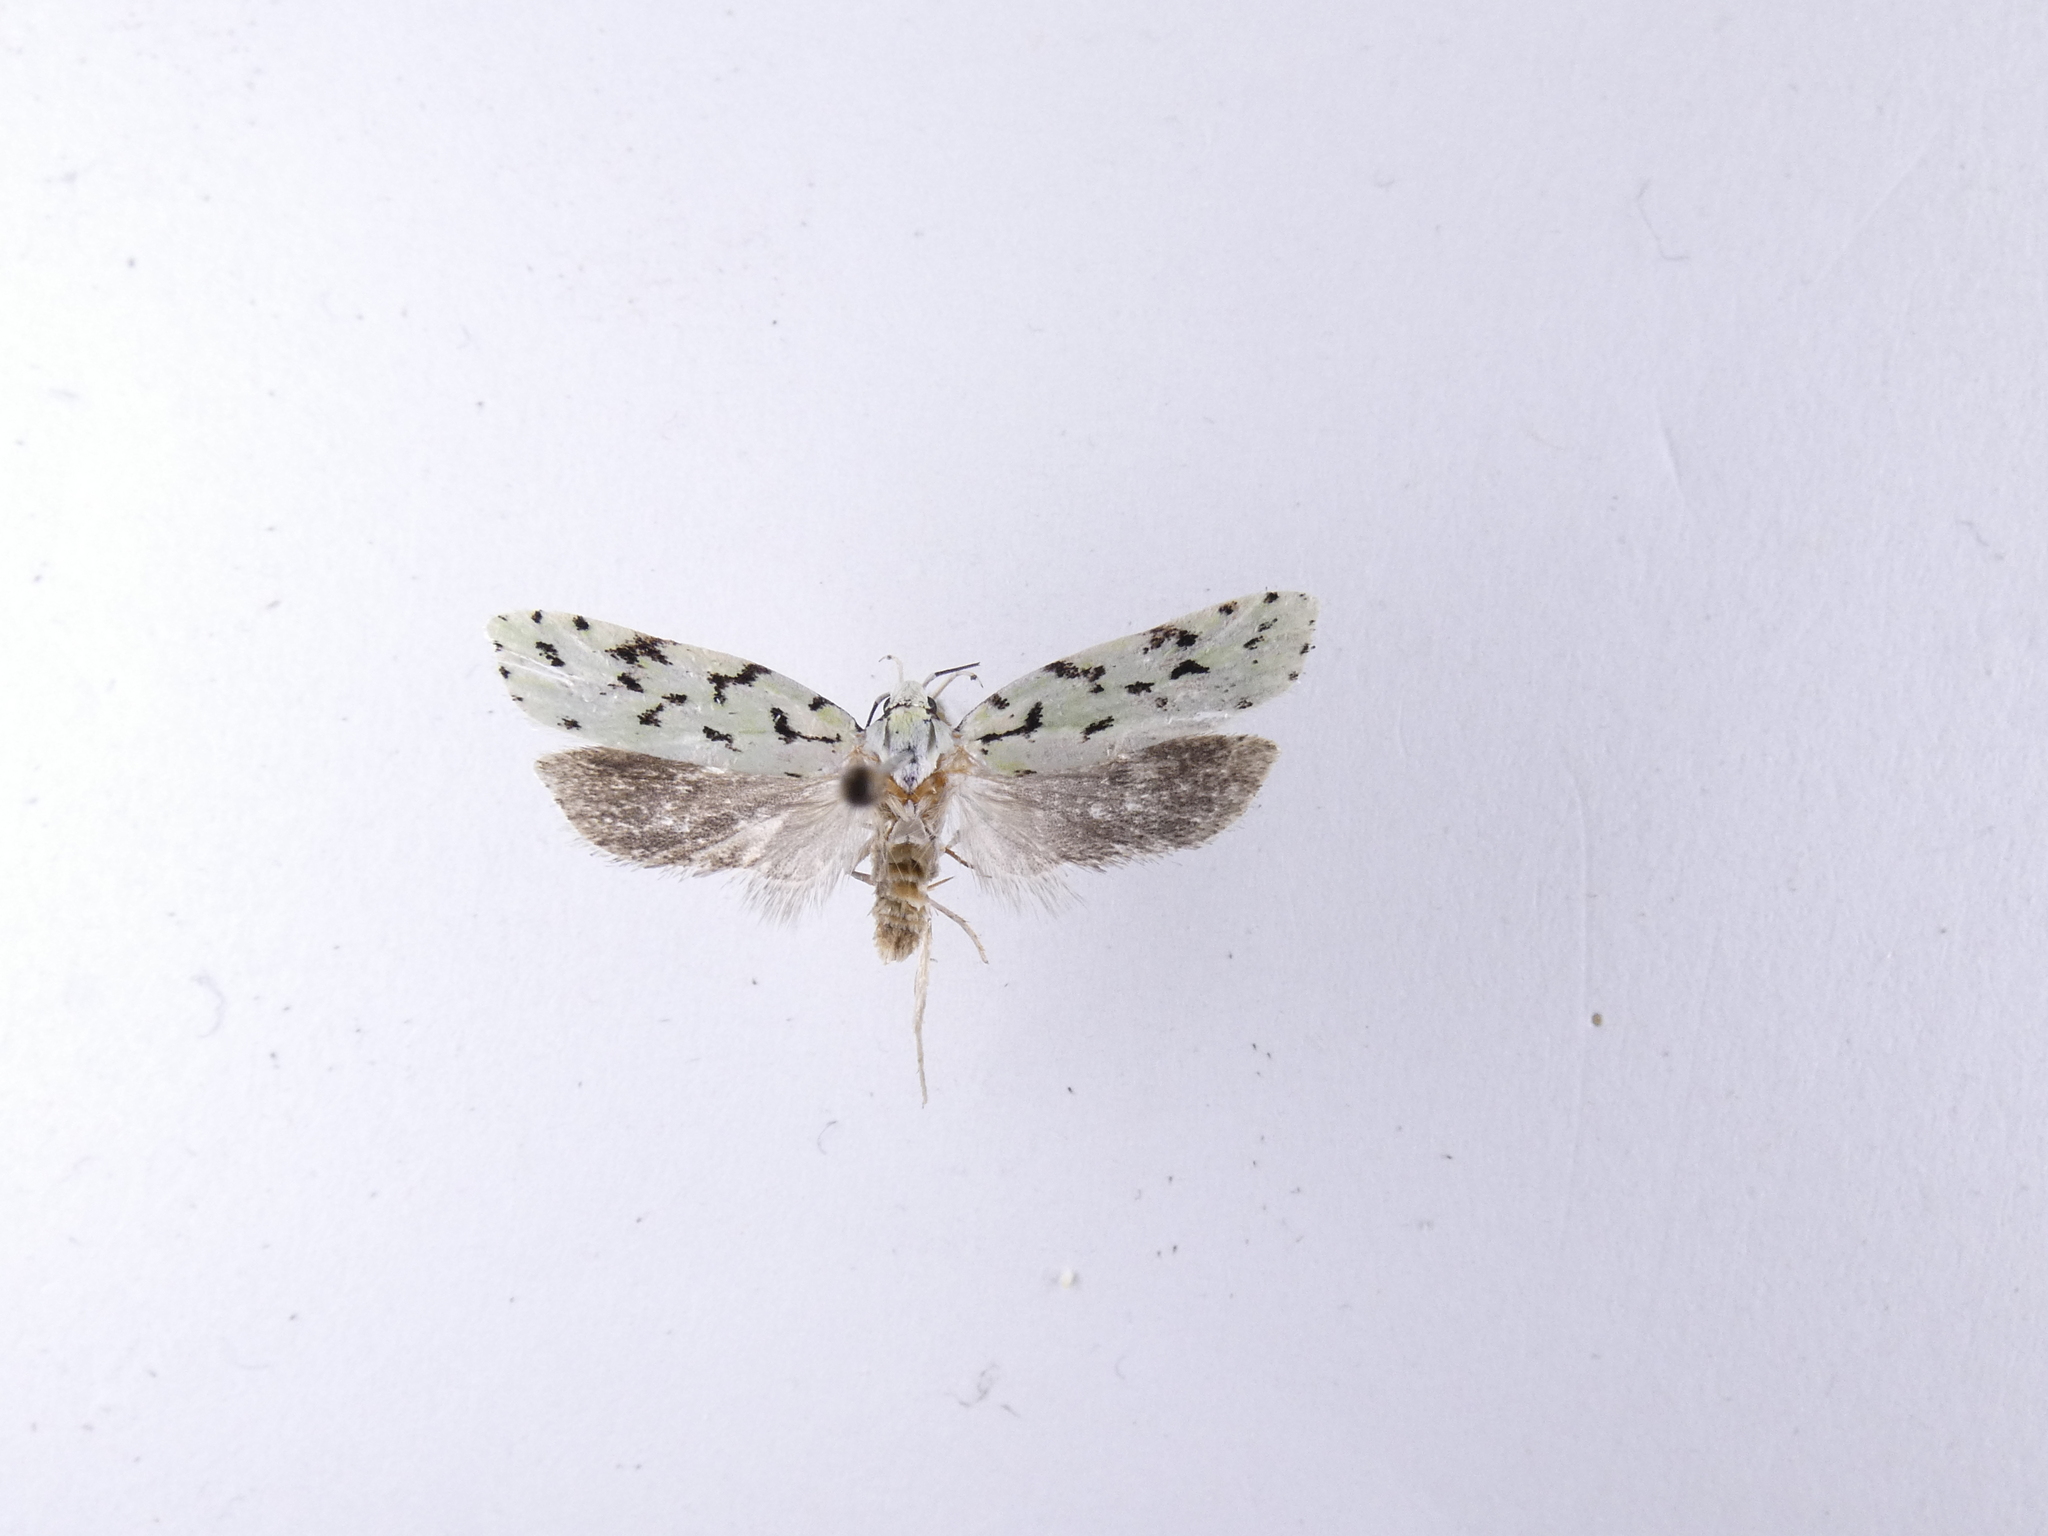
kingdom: Animalia
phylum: Arthropoda
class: Insecta
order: Lepidoptera
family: Oecophoridae
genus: Izatha
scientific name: Izatha huttoni
